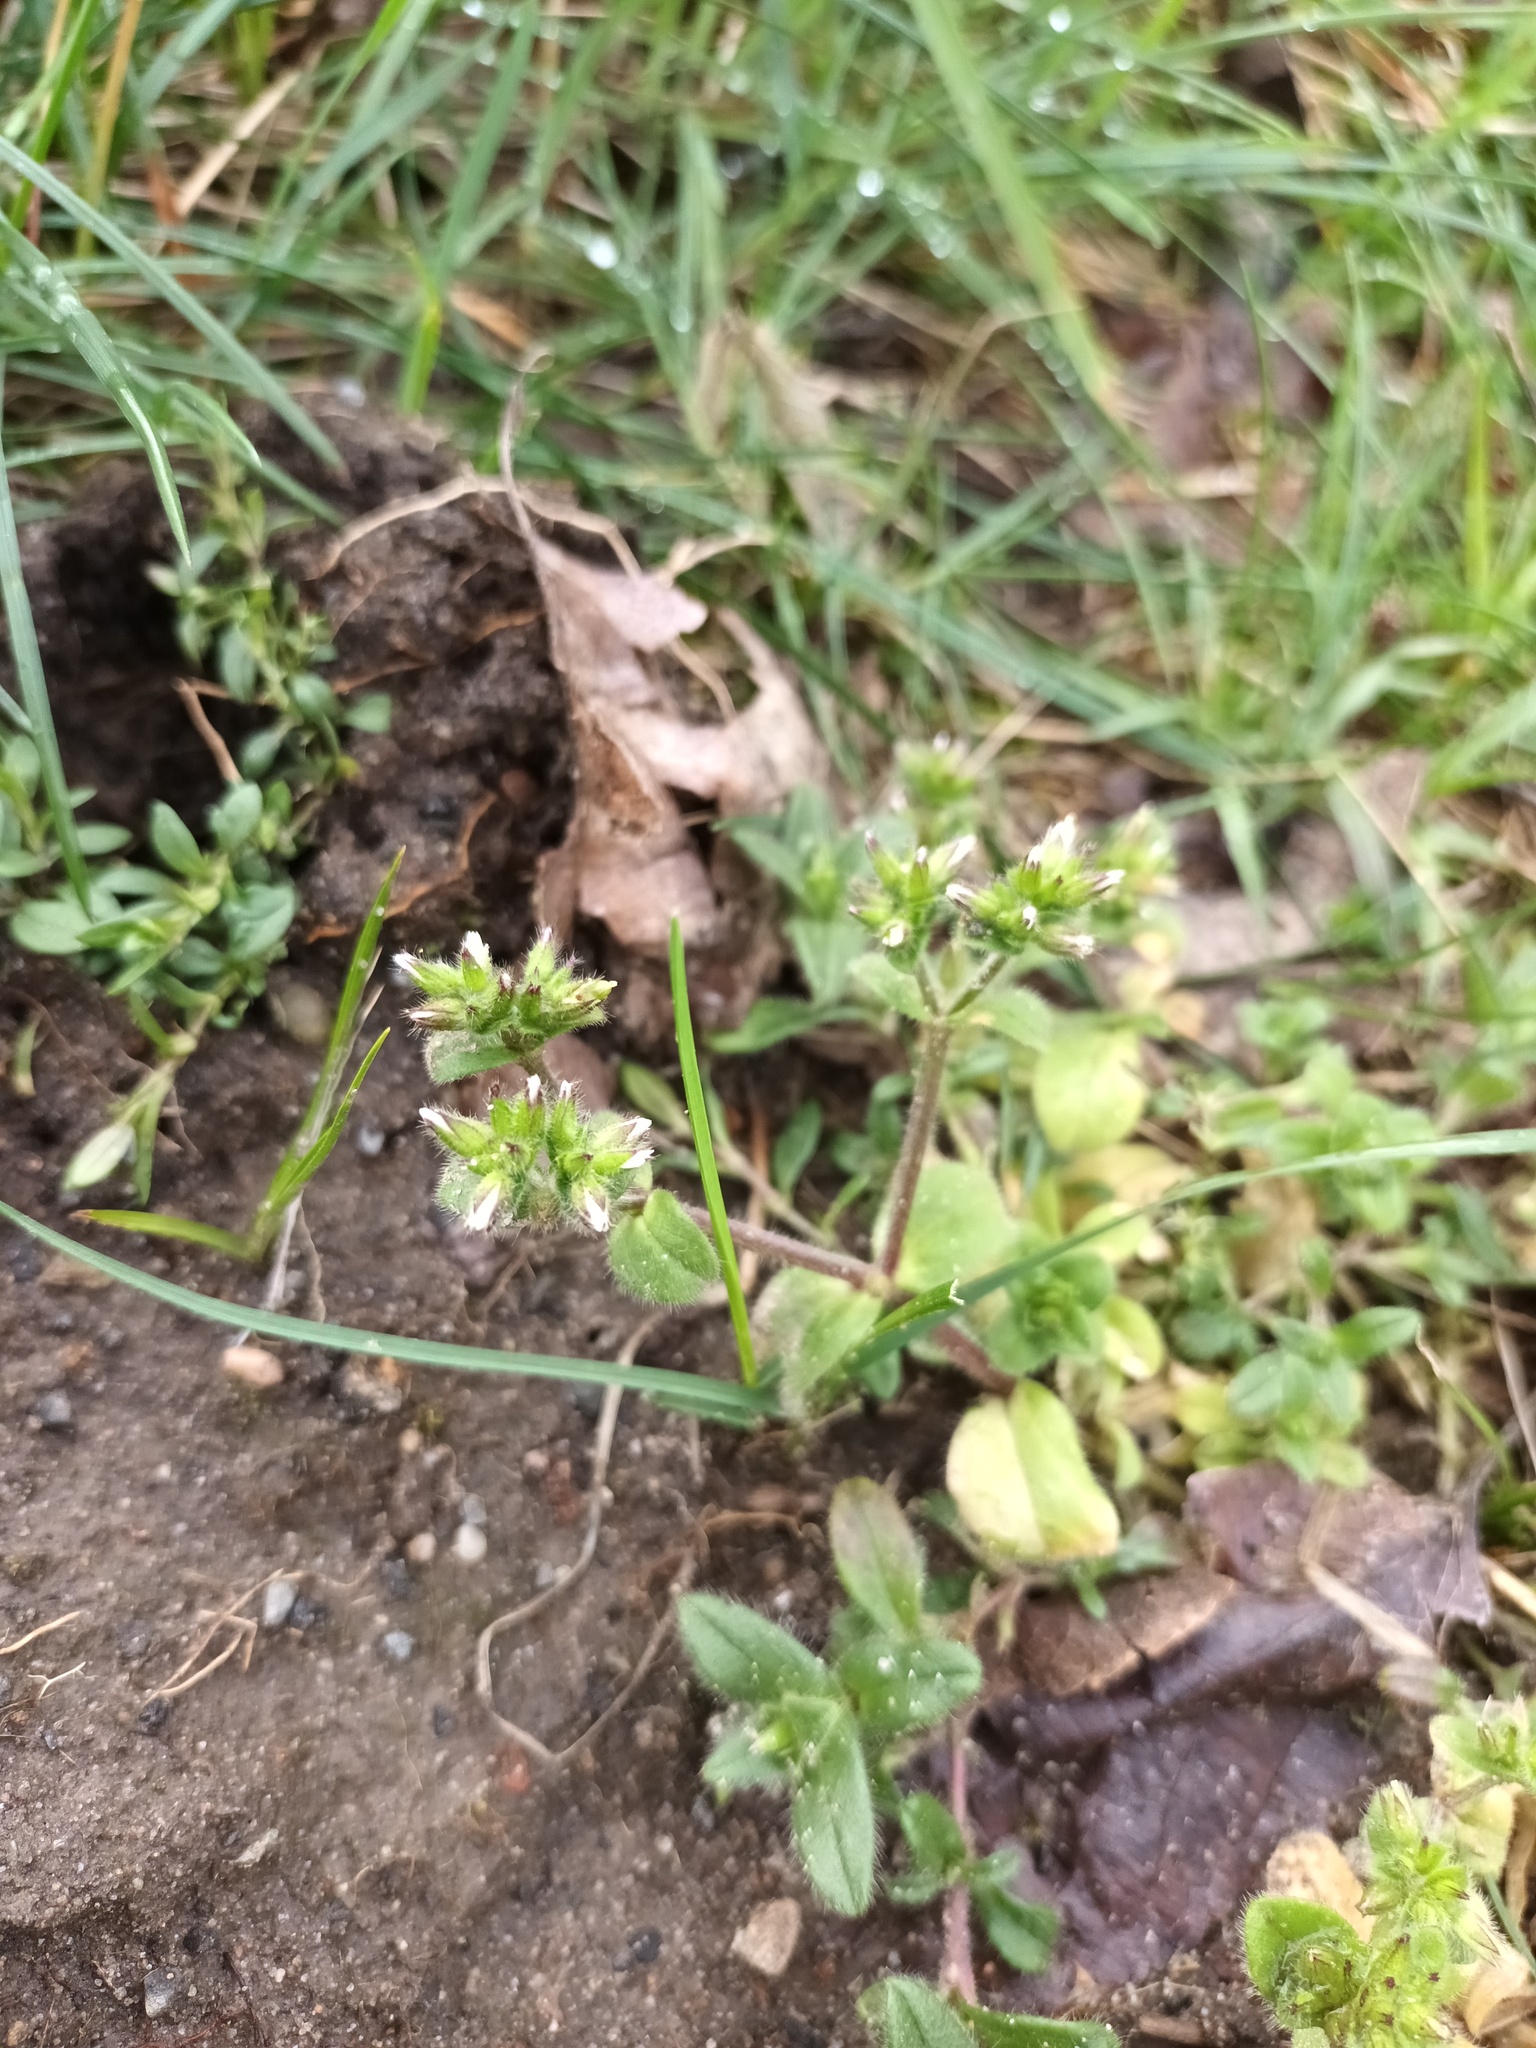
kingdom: Plantae
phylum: Tracheophyta
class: Magnoliopsida
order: Caryophyllales
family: Caryophyllaceae
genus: Cerastium
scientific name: Cerastium glomeratum
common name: Sticky chickweed
